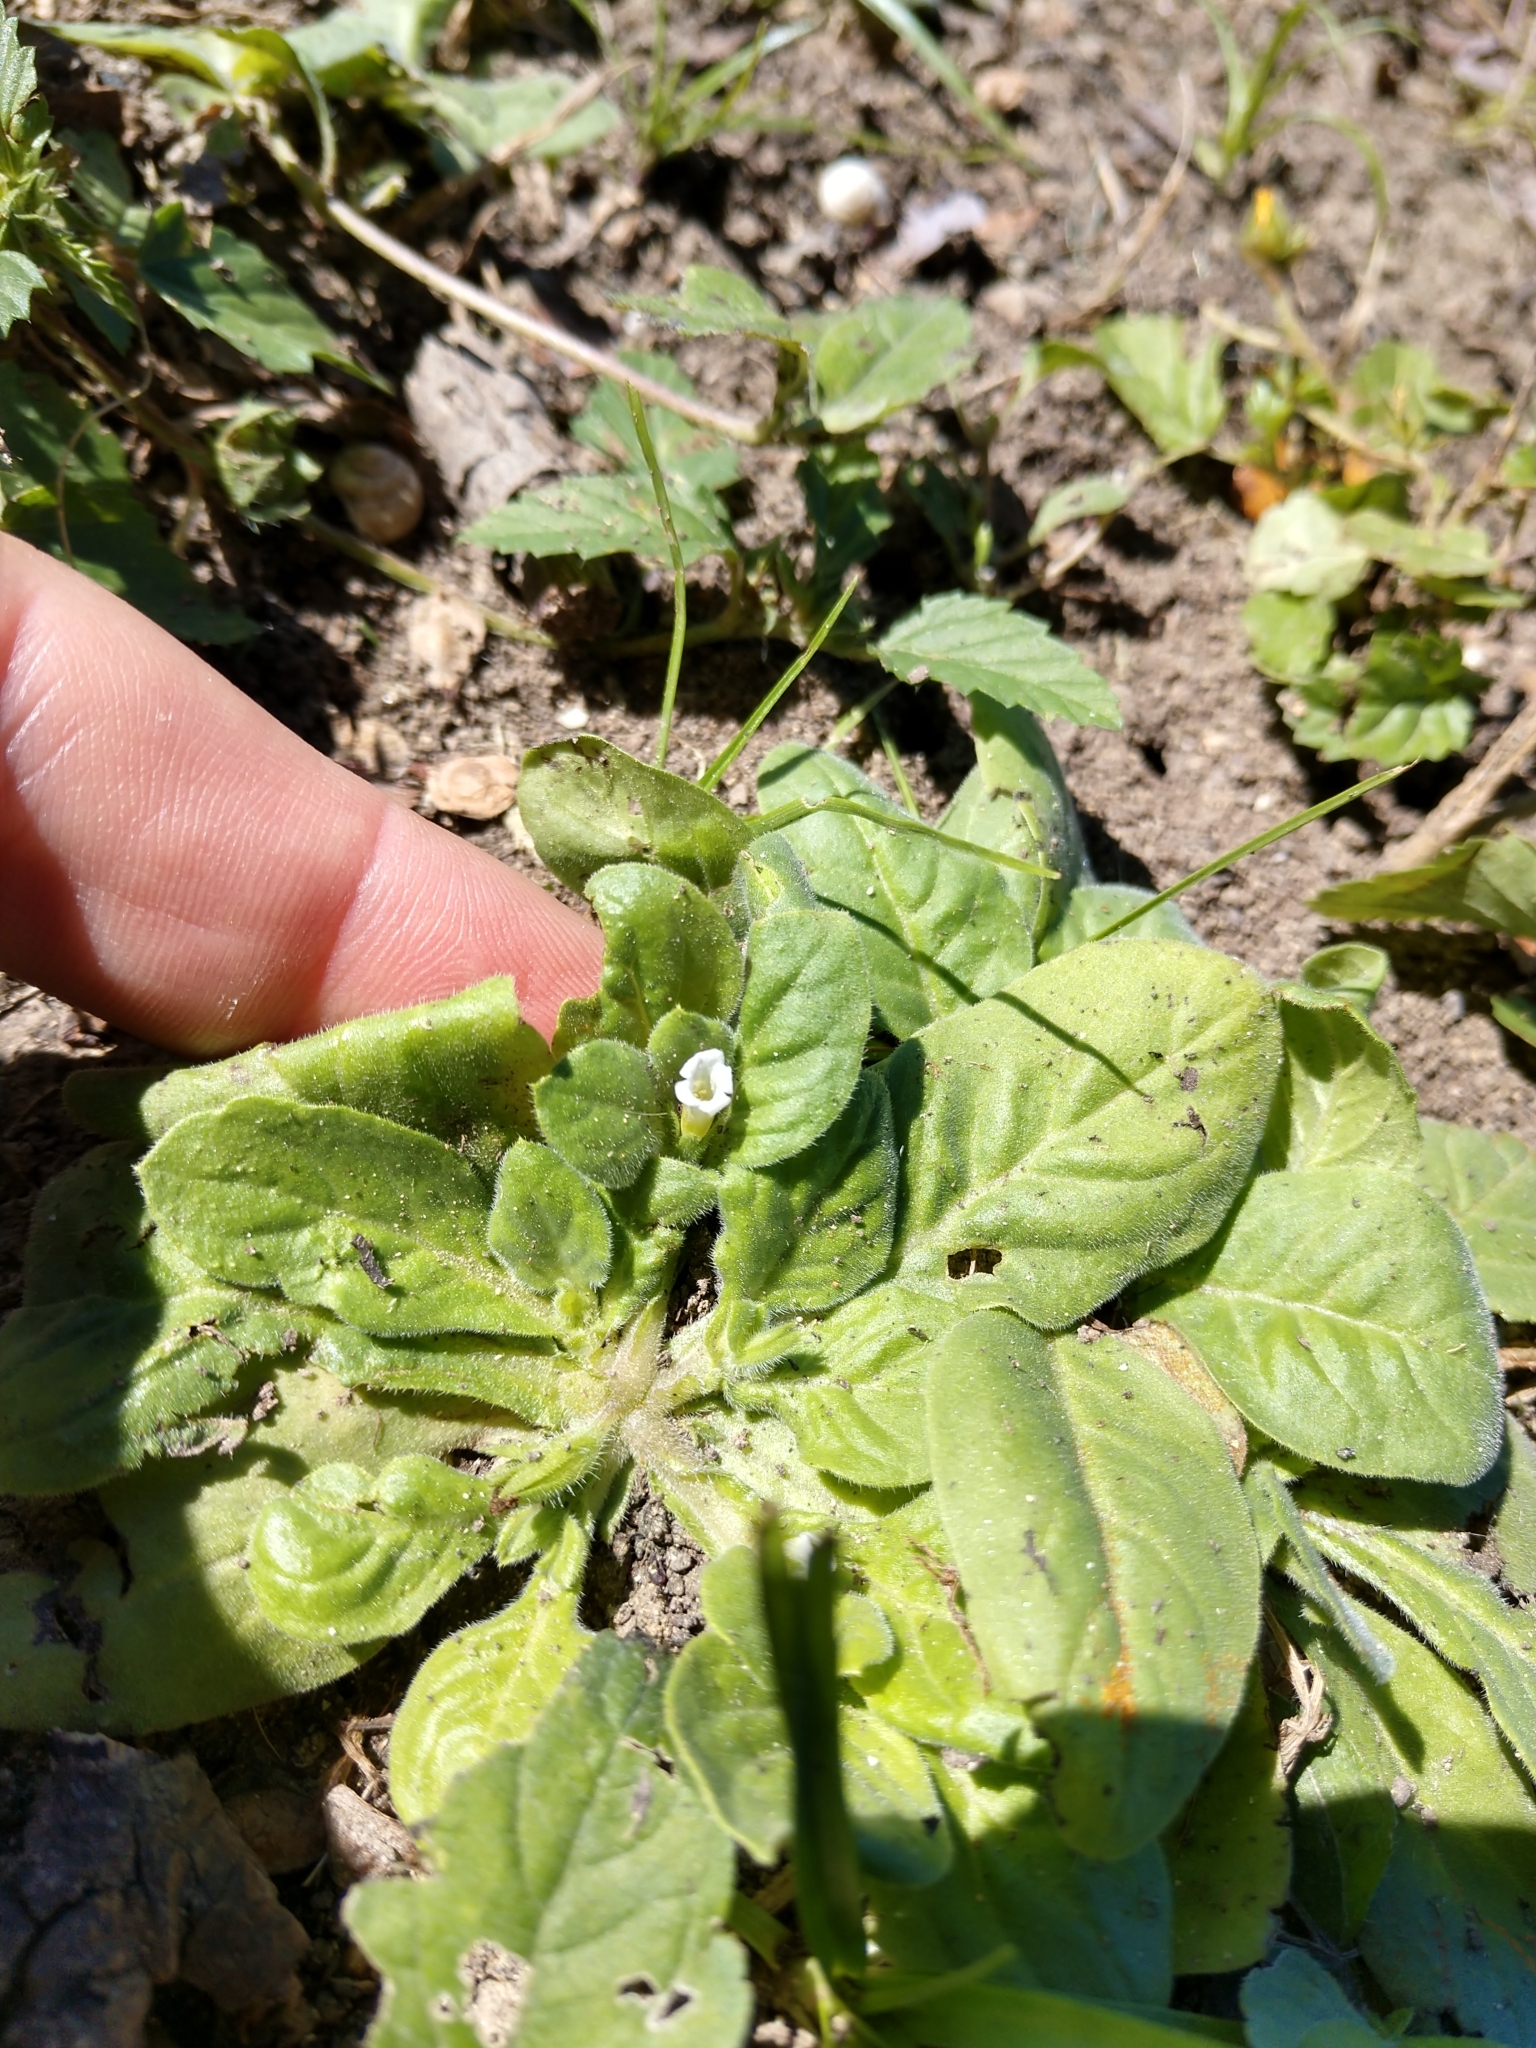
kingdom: Plantae
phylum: Tracheophyta
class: Magnoliopsida
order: Boraginales
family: Namaceae
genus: Nama
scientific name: Nama jamaicensis
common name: Jamaicanweed
